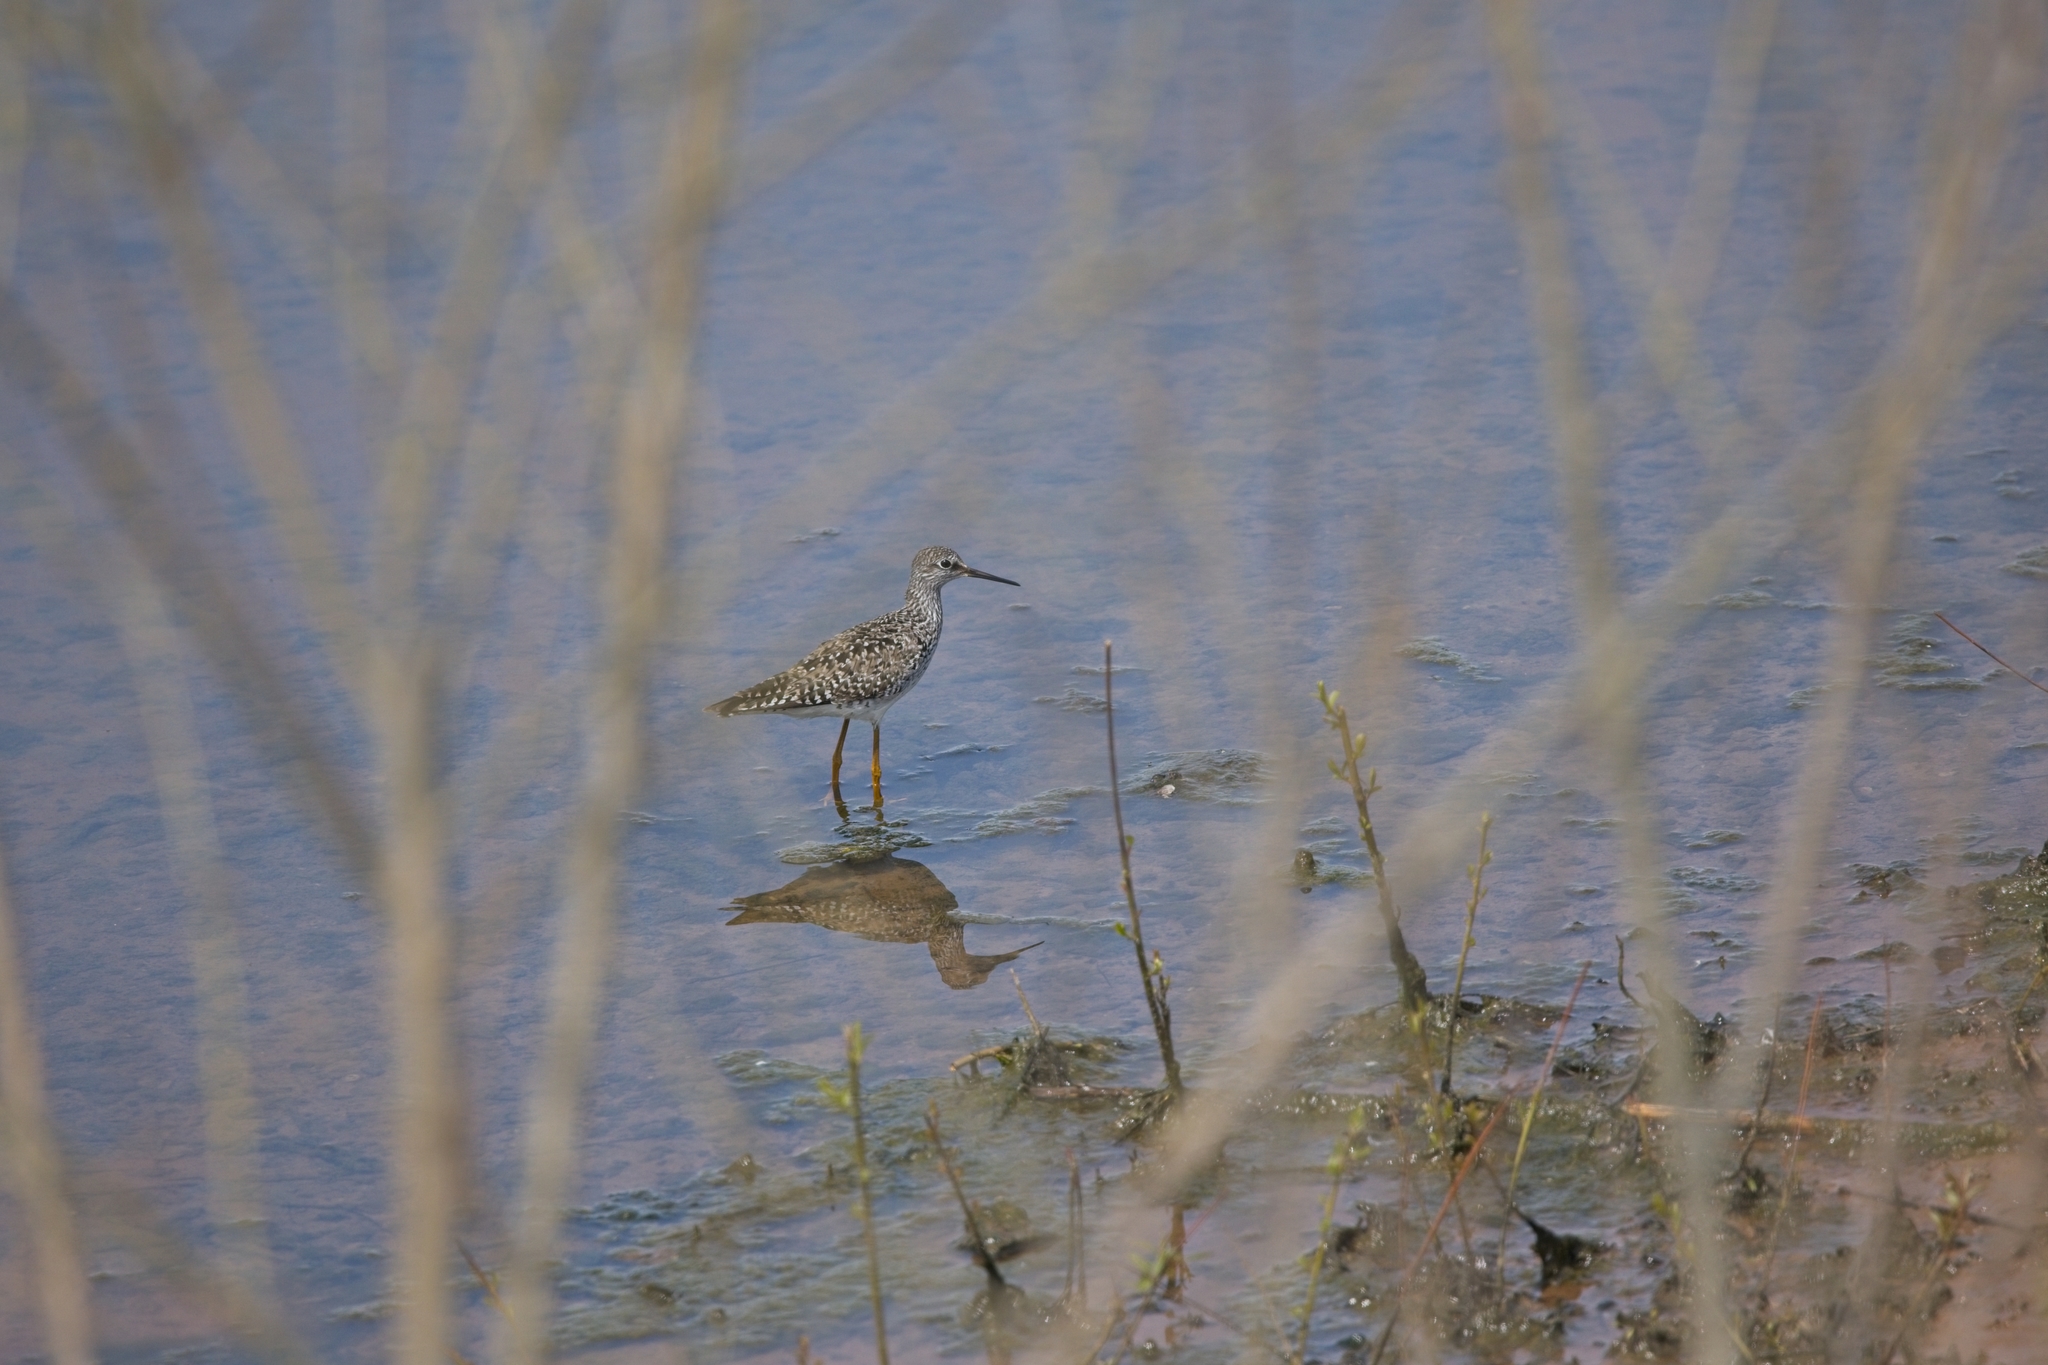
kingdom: Animalia
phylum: Chordata
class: Aves
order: Charadriiformes
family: Scolopacidae
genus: Tringa
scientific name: Tringa flavipes
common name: Lesser yellowlegs
